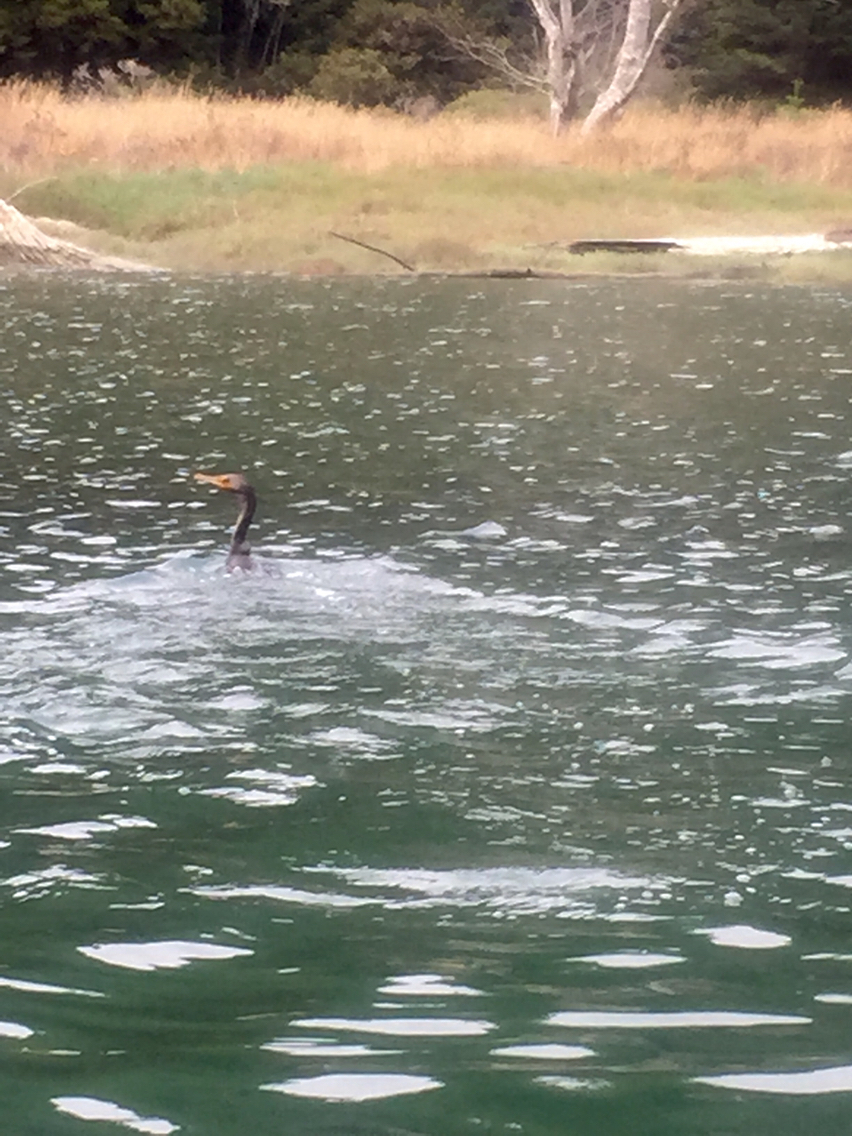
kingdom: Animalia
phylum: Chordata
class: Aves
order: Suliformes
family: Phalacrocoracidae
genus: Phalacrocorax
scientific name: Phalacrocorax auritus
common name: Double-crested cormorant
